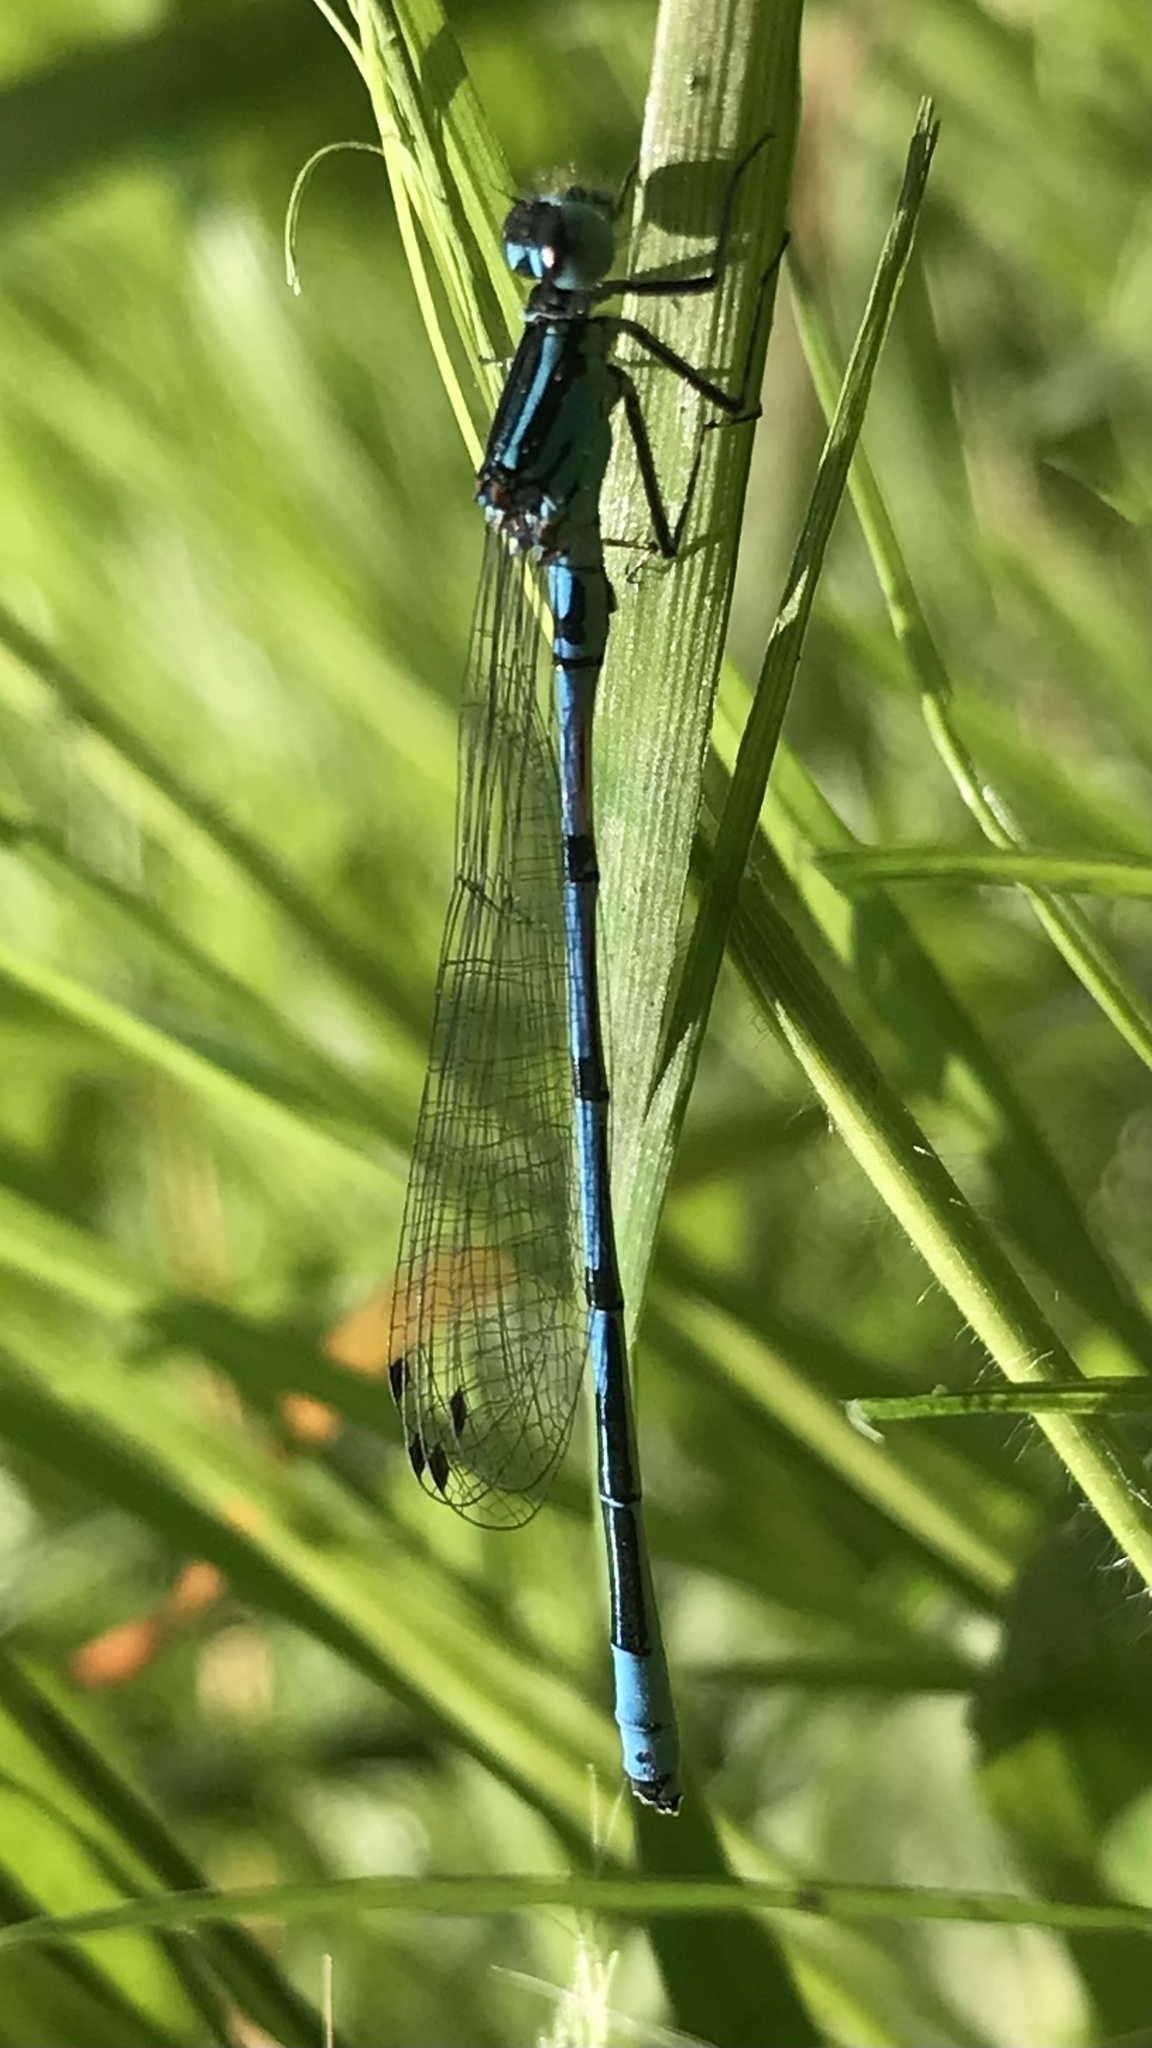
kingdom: Animalia
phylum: Arthropoda
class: Insecta
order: Odonata
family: Coenagrionidae
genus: Coenagrion
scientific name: Coenagrion puella
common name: Azure damselfly
